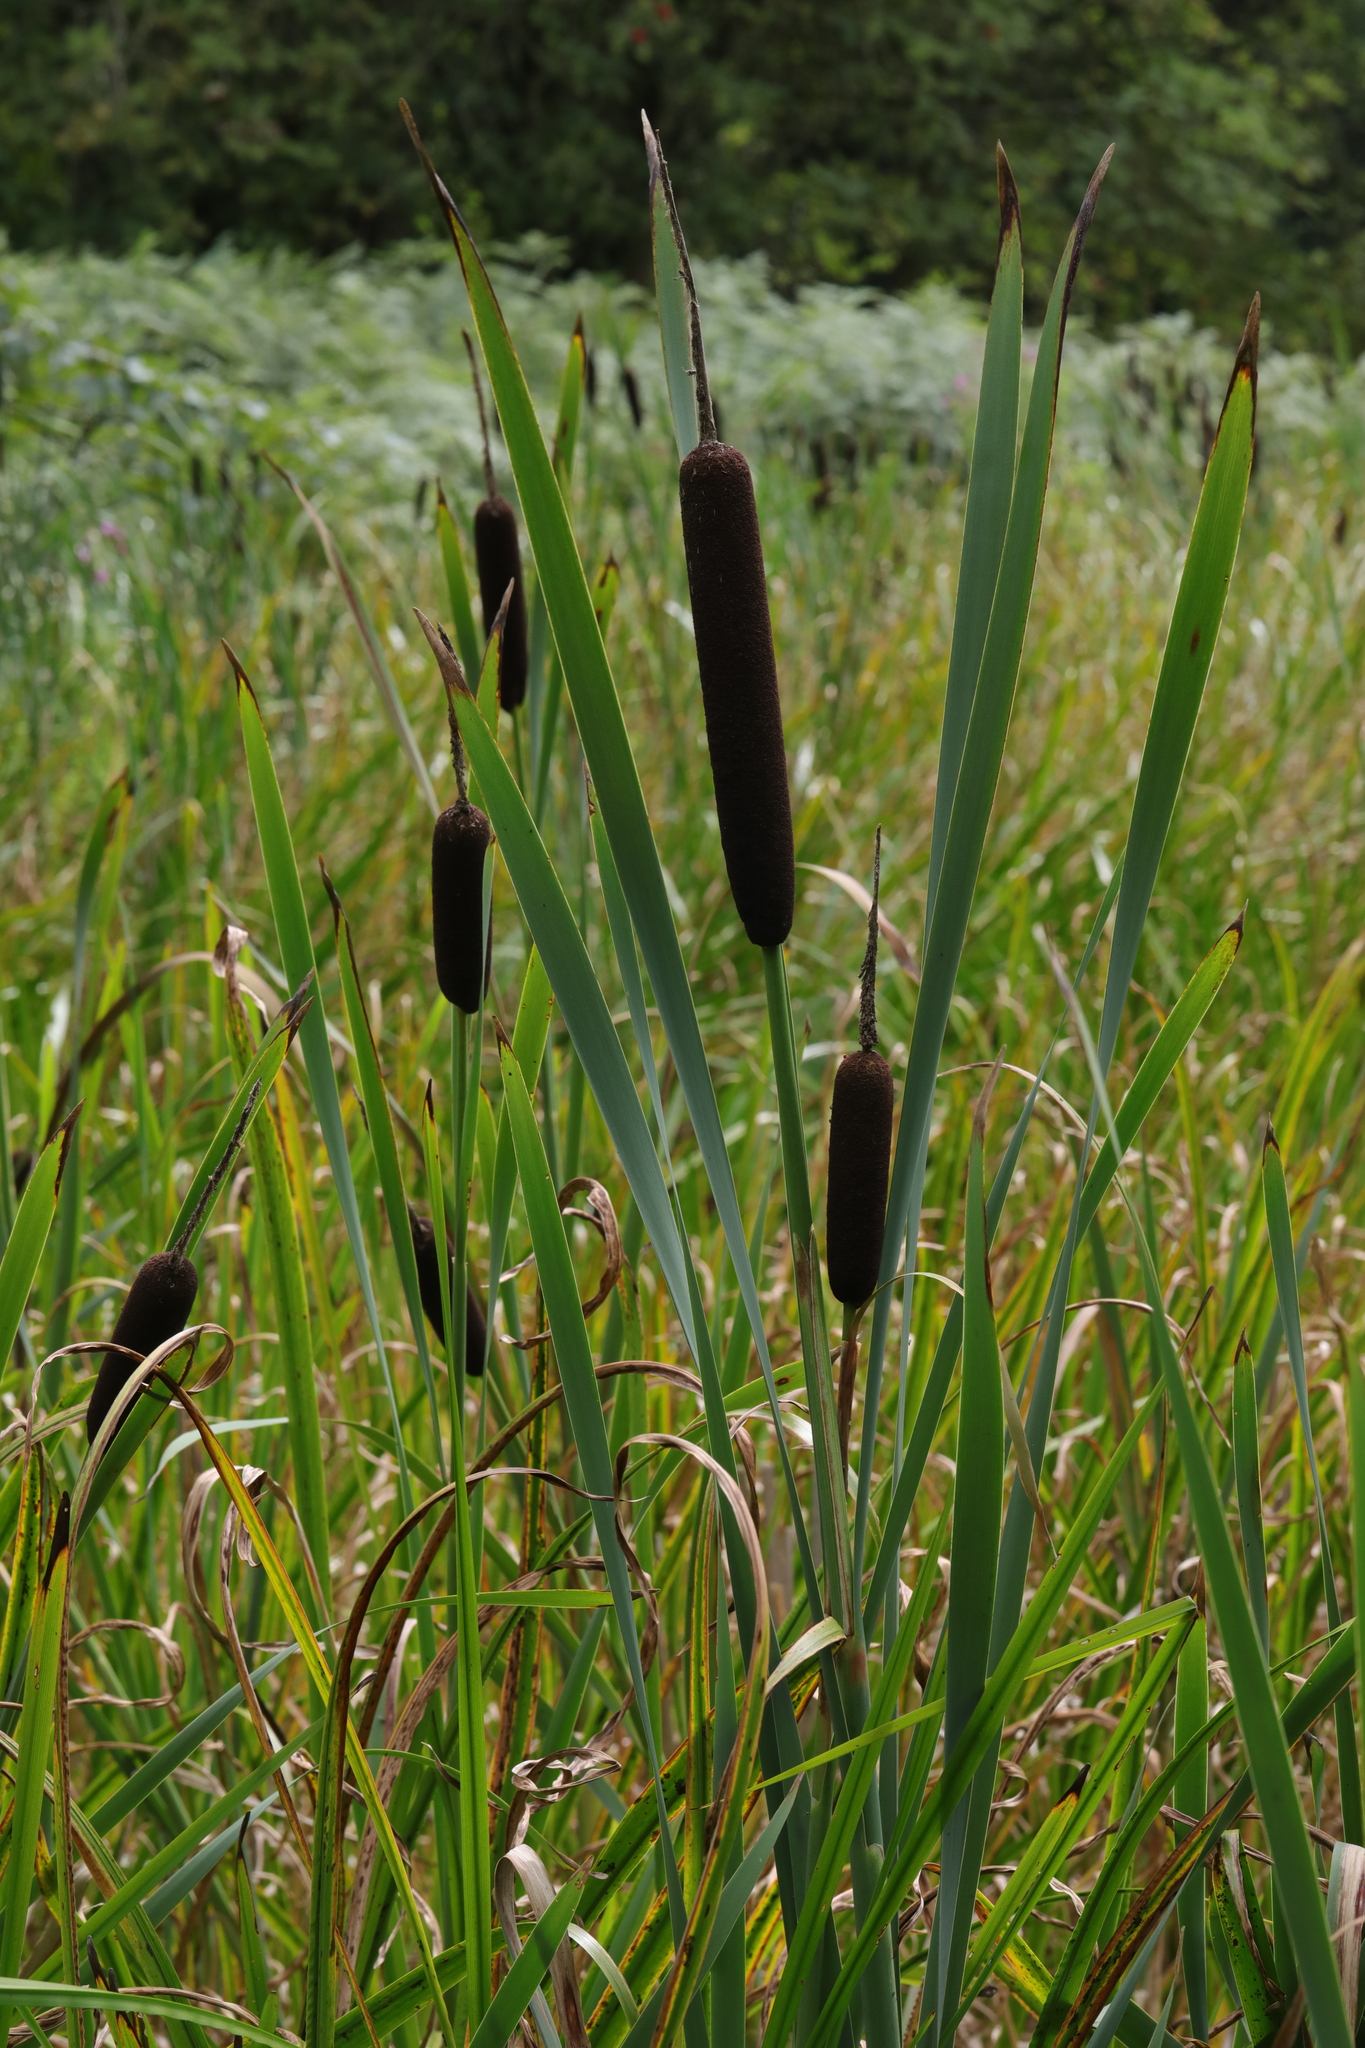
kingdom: Plantae
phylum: Tracheophyta
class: Liliopsida
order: Poales
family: Typhaceae
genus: Typha
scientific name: Typha latifolia
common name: Broadleaf cattail
